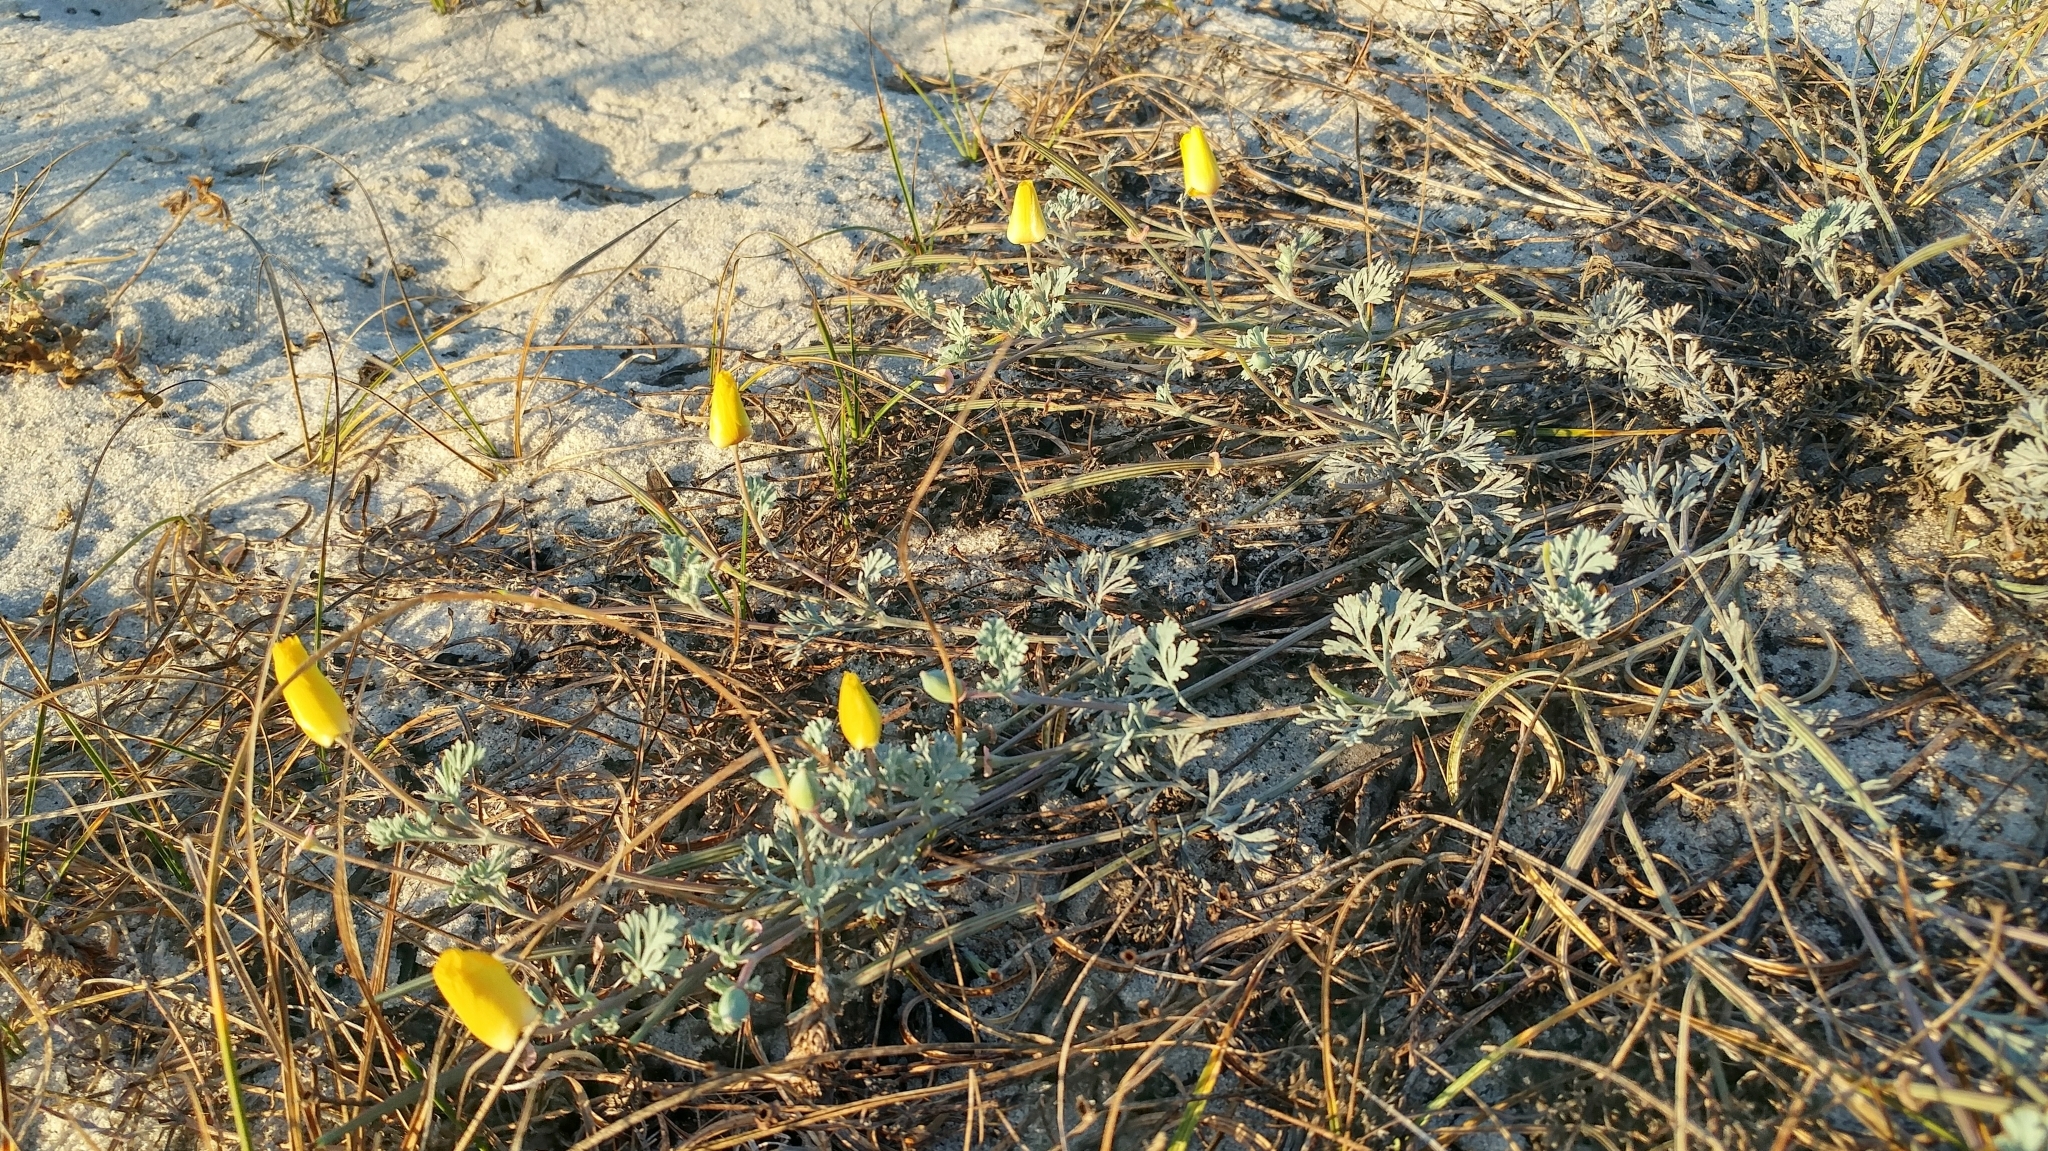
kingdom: Plantae
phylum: Tracheophyta
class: Magnoliopsida
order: Ranunculales
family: Papaveraceae
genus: Eschscholzia
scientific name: Eschscholzia californica
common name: California poppy
